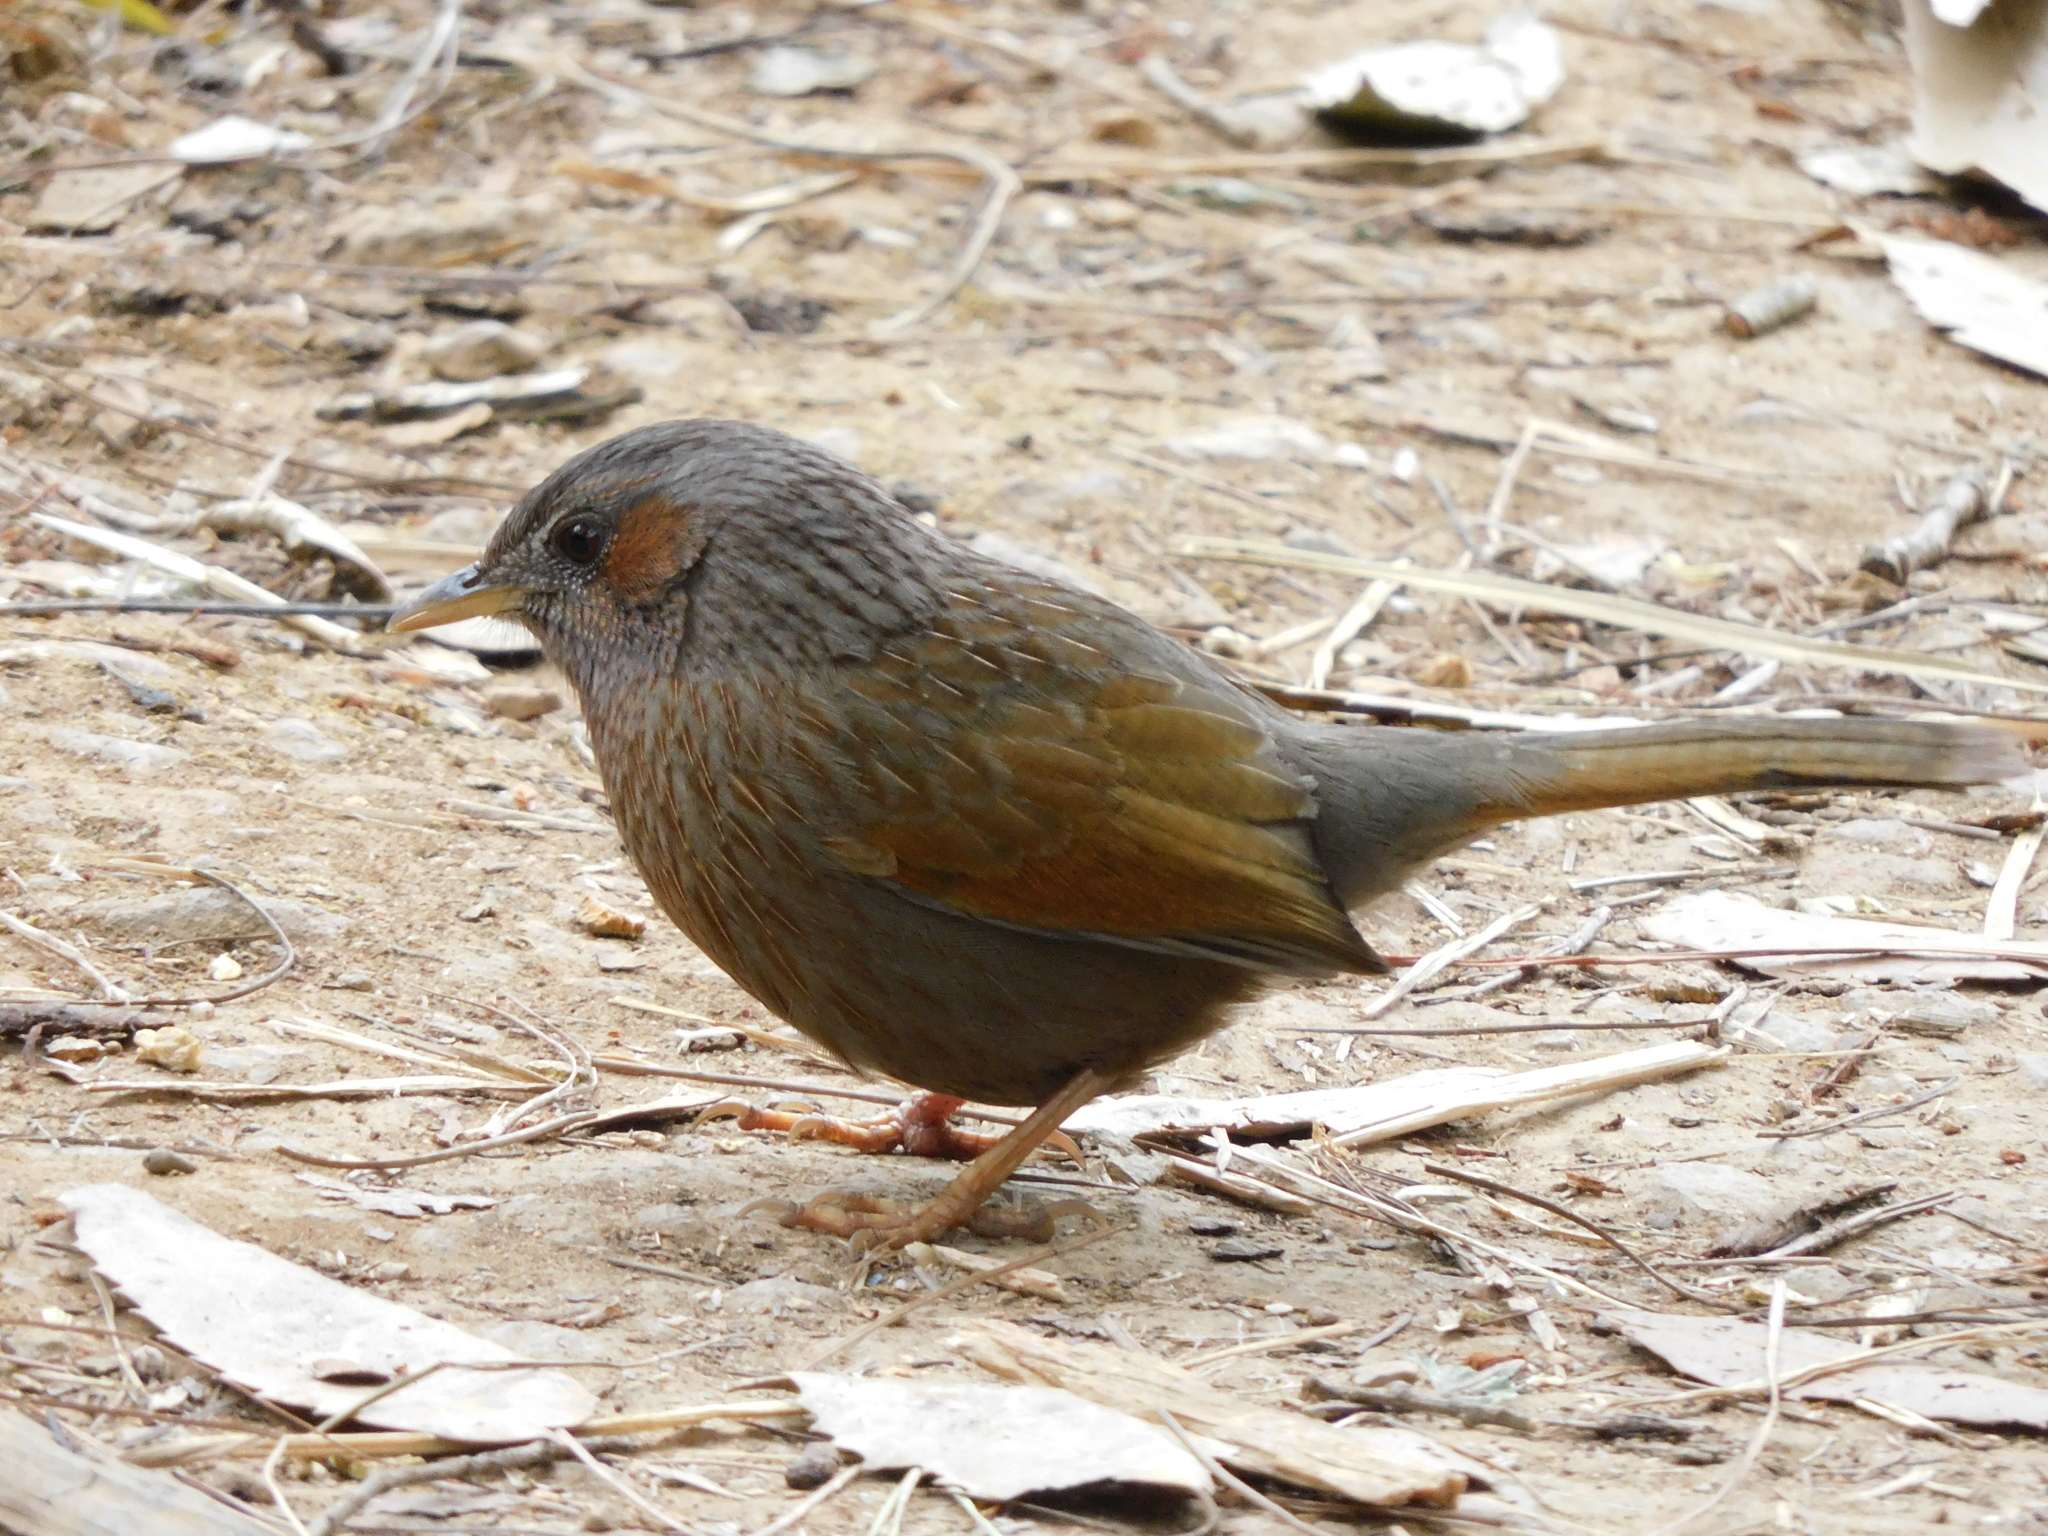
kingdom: Animalia
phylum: Chordata
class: Aves
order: Passeriformes
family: Leiothrichidae
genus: Trochalopteron
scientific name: Trochalopteron lineatum
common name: Streaked laughingthrush
